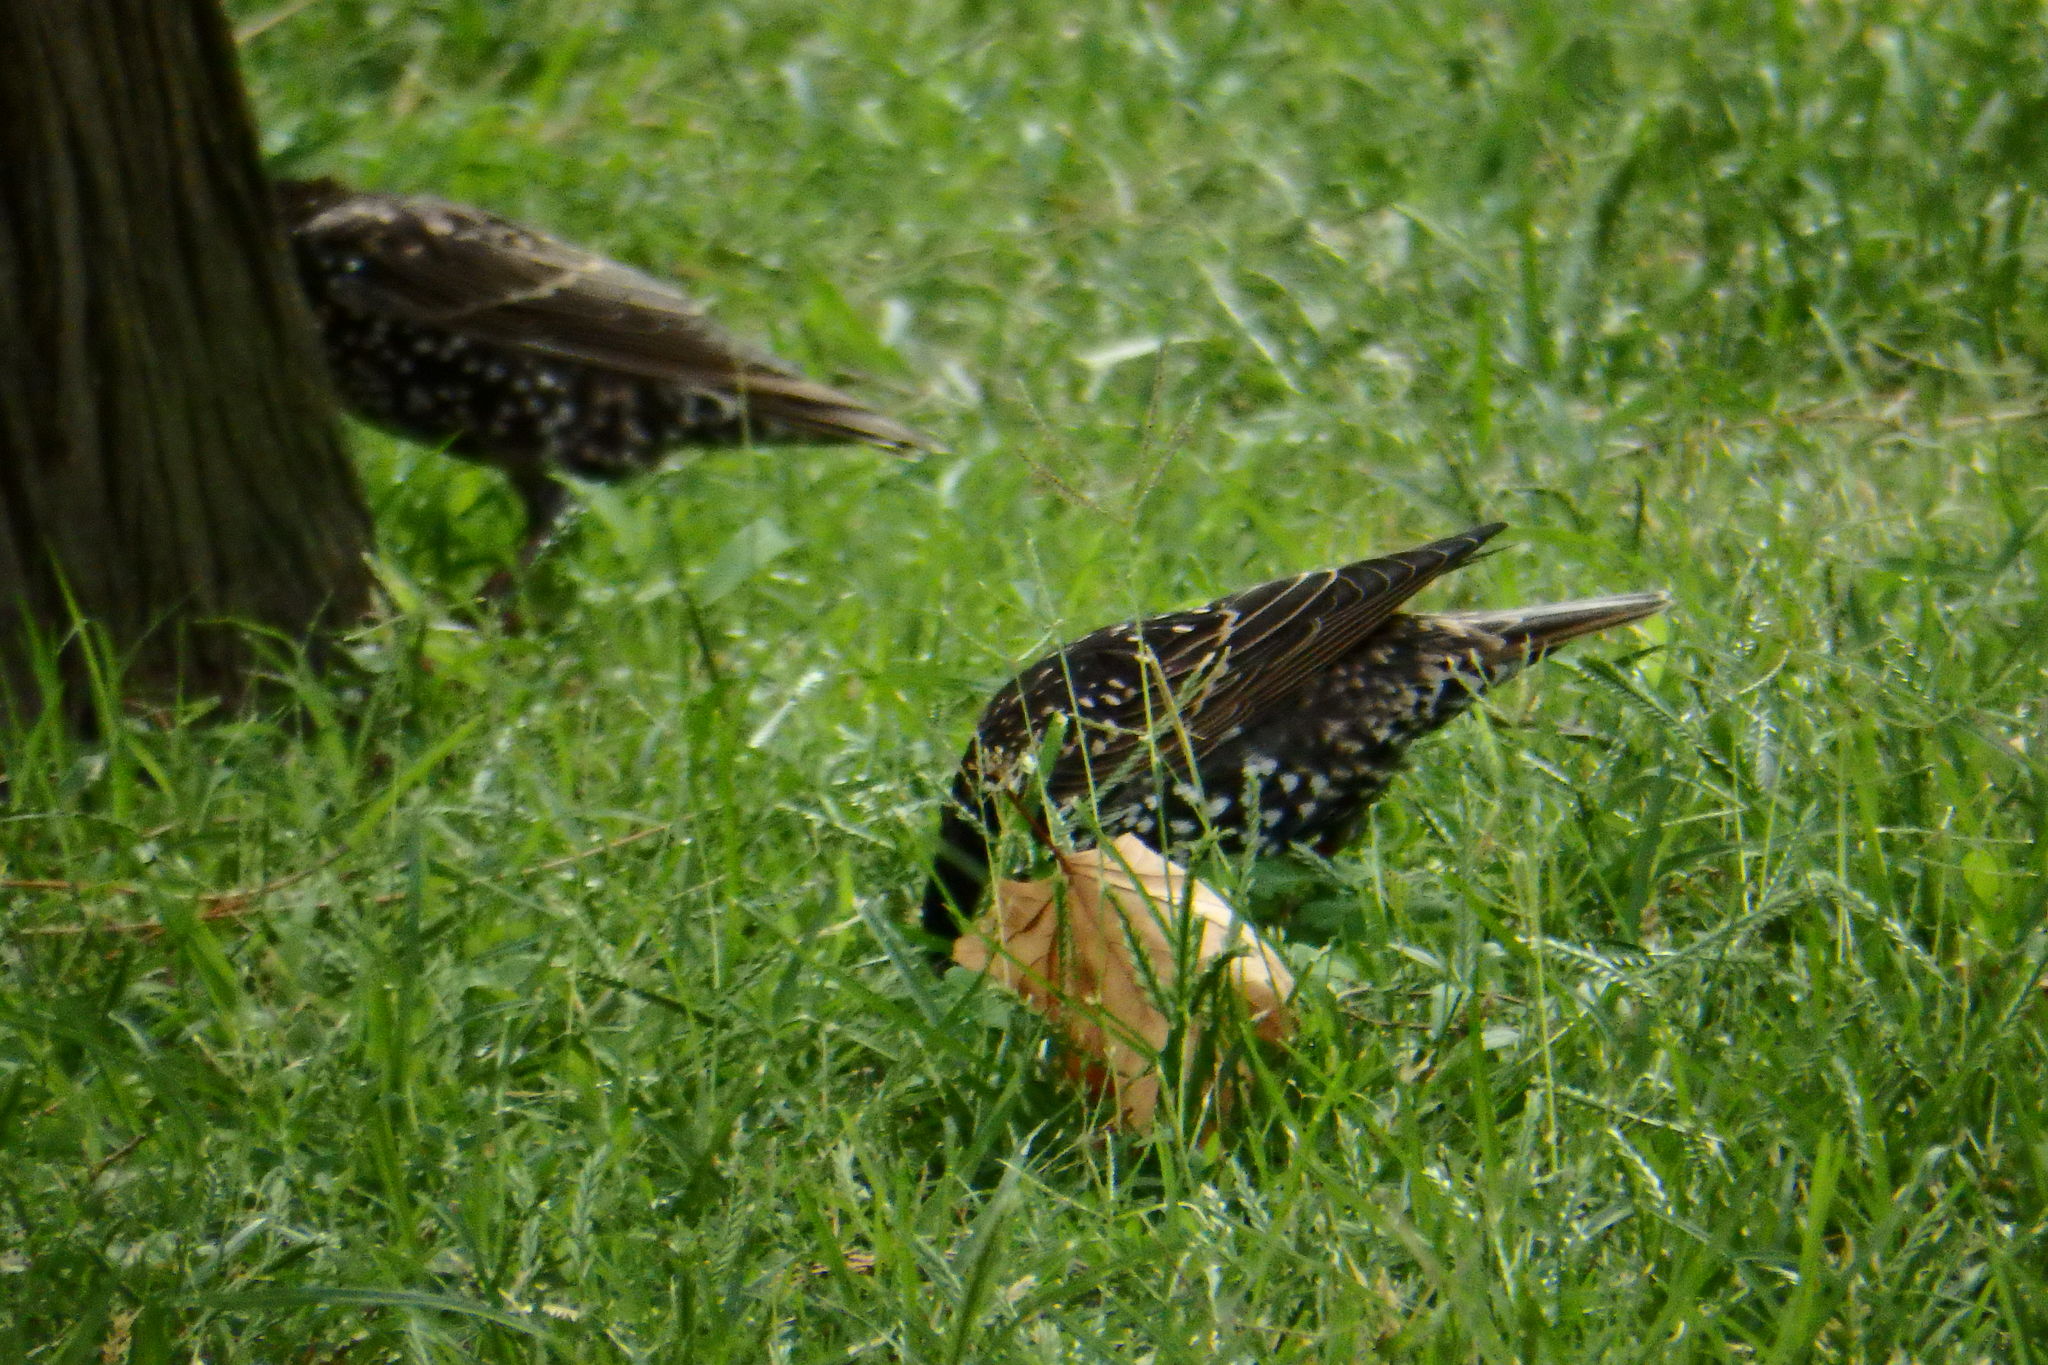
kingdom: Animalia
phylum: Chordata
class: Aves
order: Passeriformes
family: Sturnidae
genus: Sturnus
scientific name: Sturnus vulgaris
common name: Common starling
